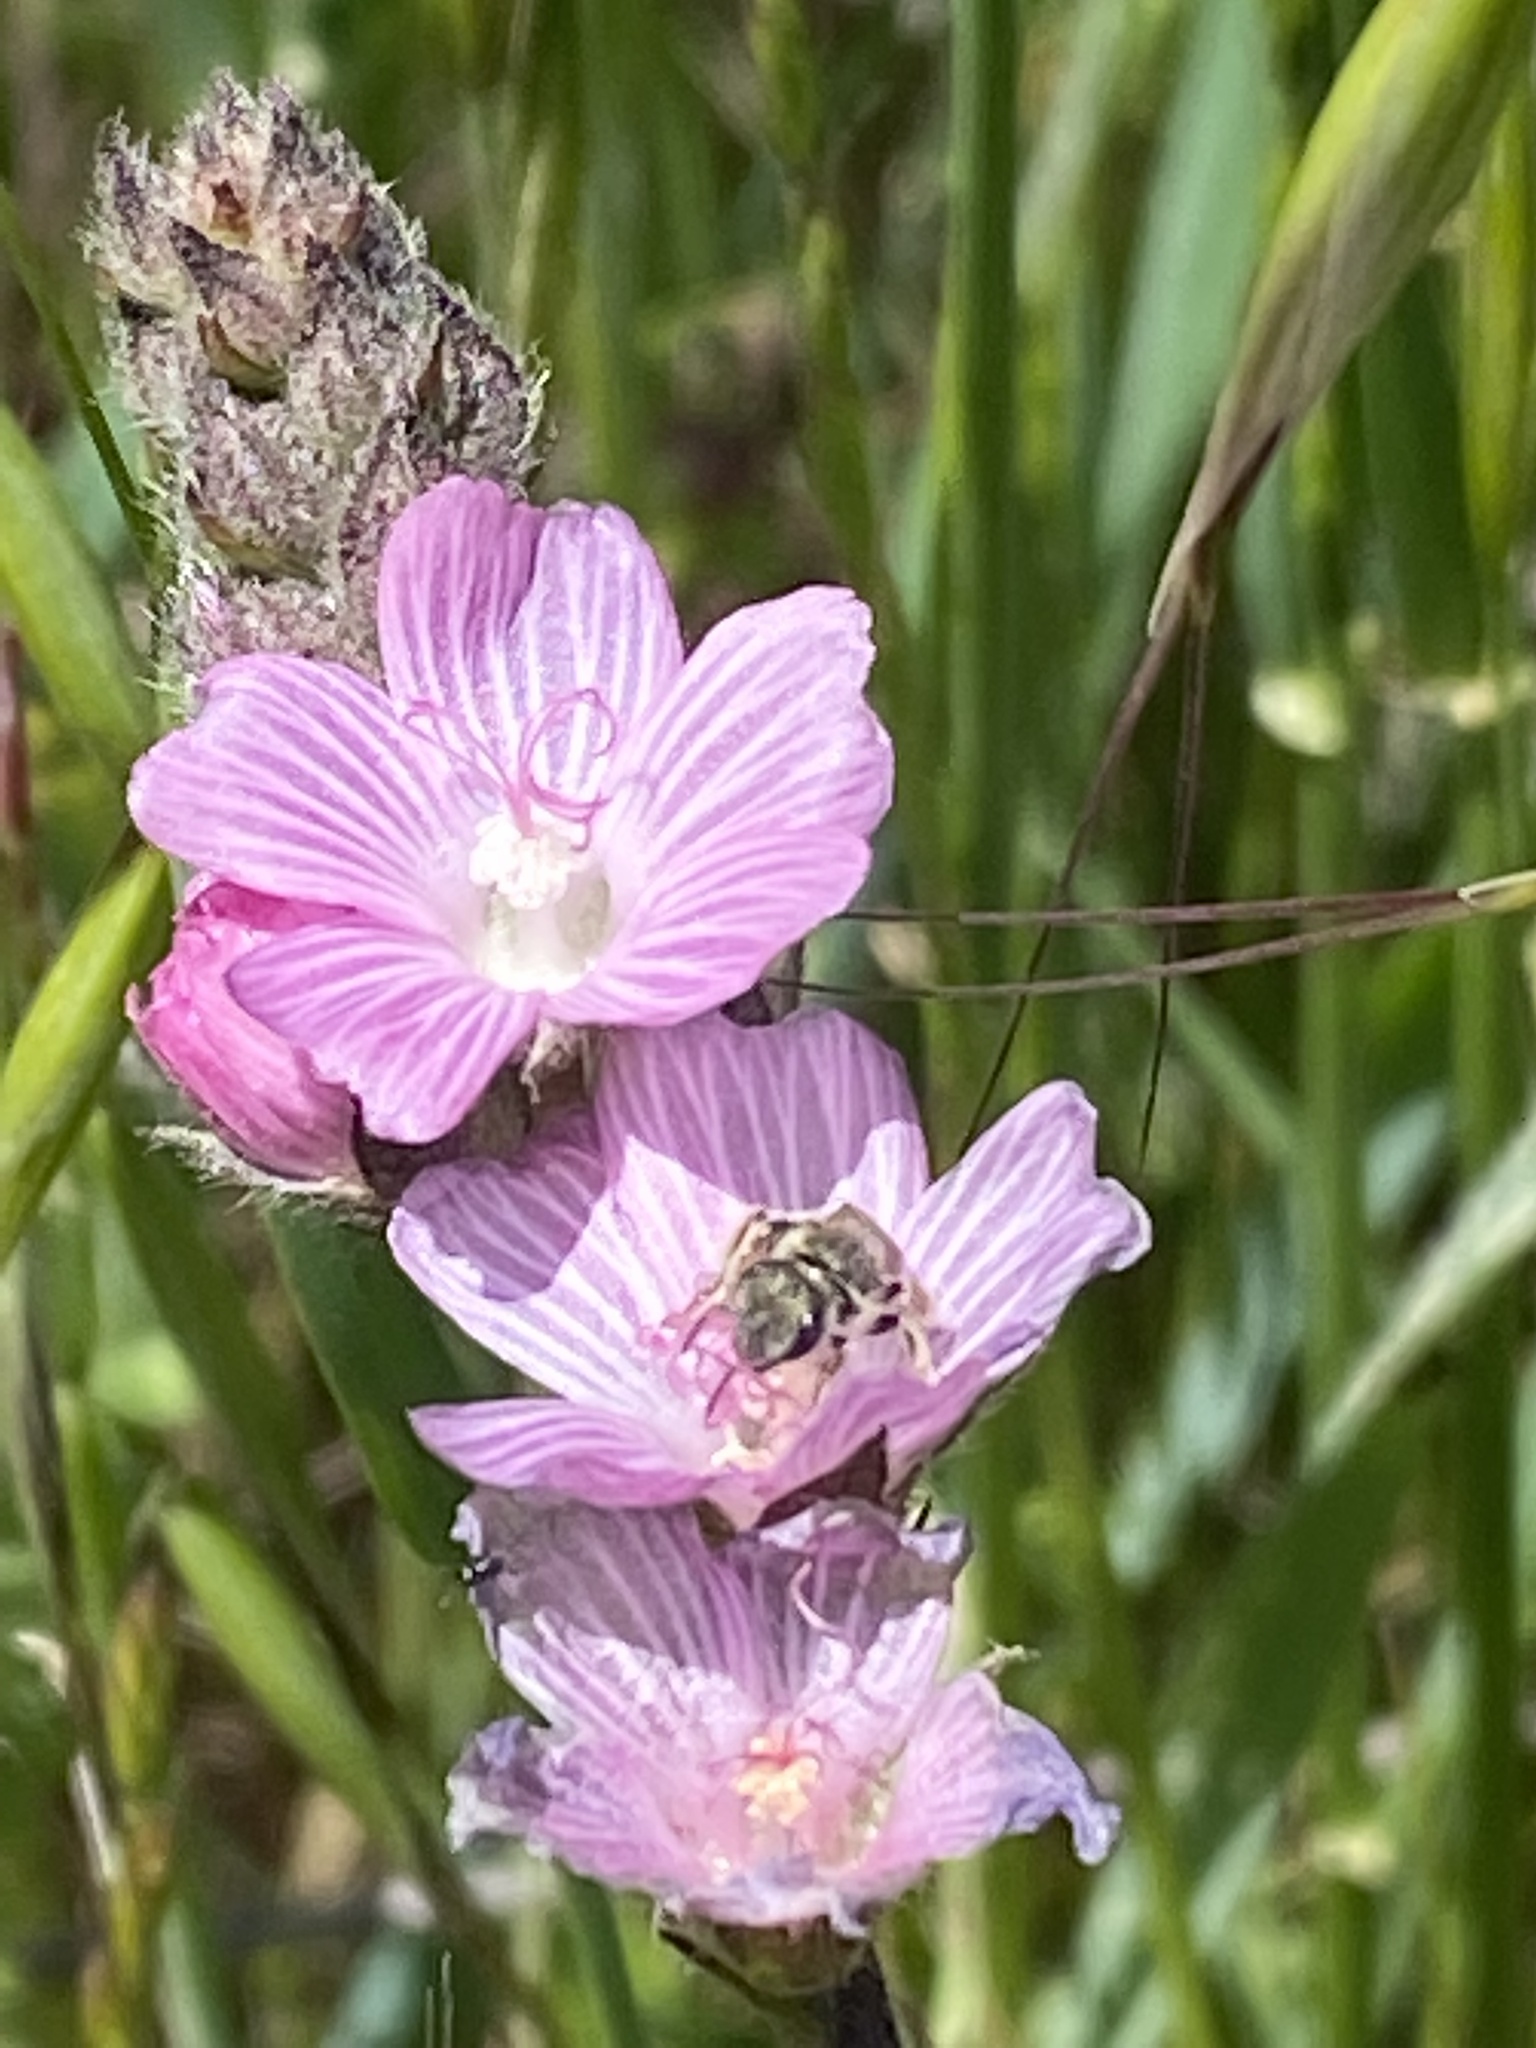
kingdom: Plantae
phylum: Tracheophyta
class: Magnoliopsida
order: Malvales
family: Malvaceae
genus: Sidalcea
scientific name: Sidalcea malviflora
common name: Greek mallow
